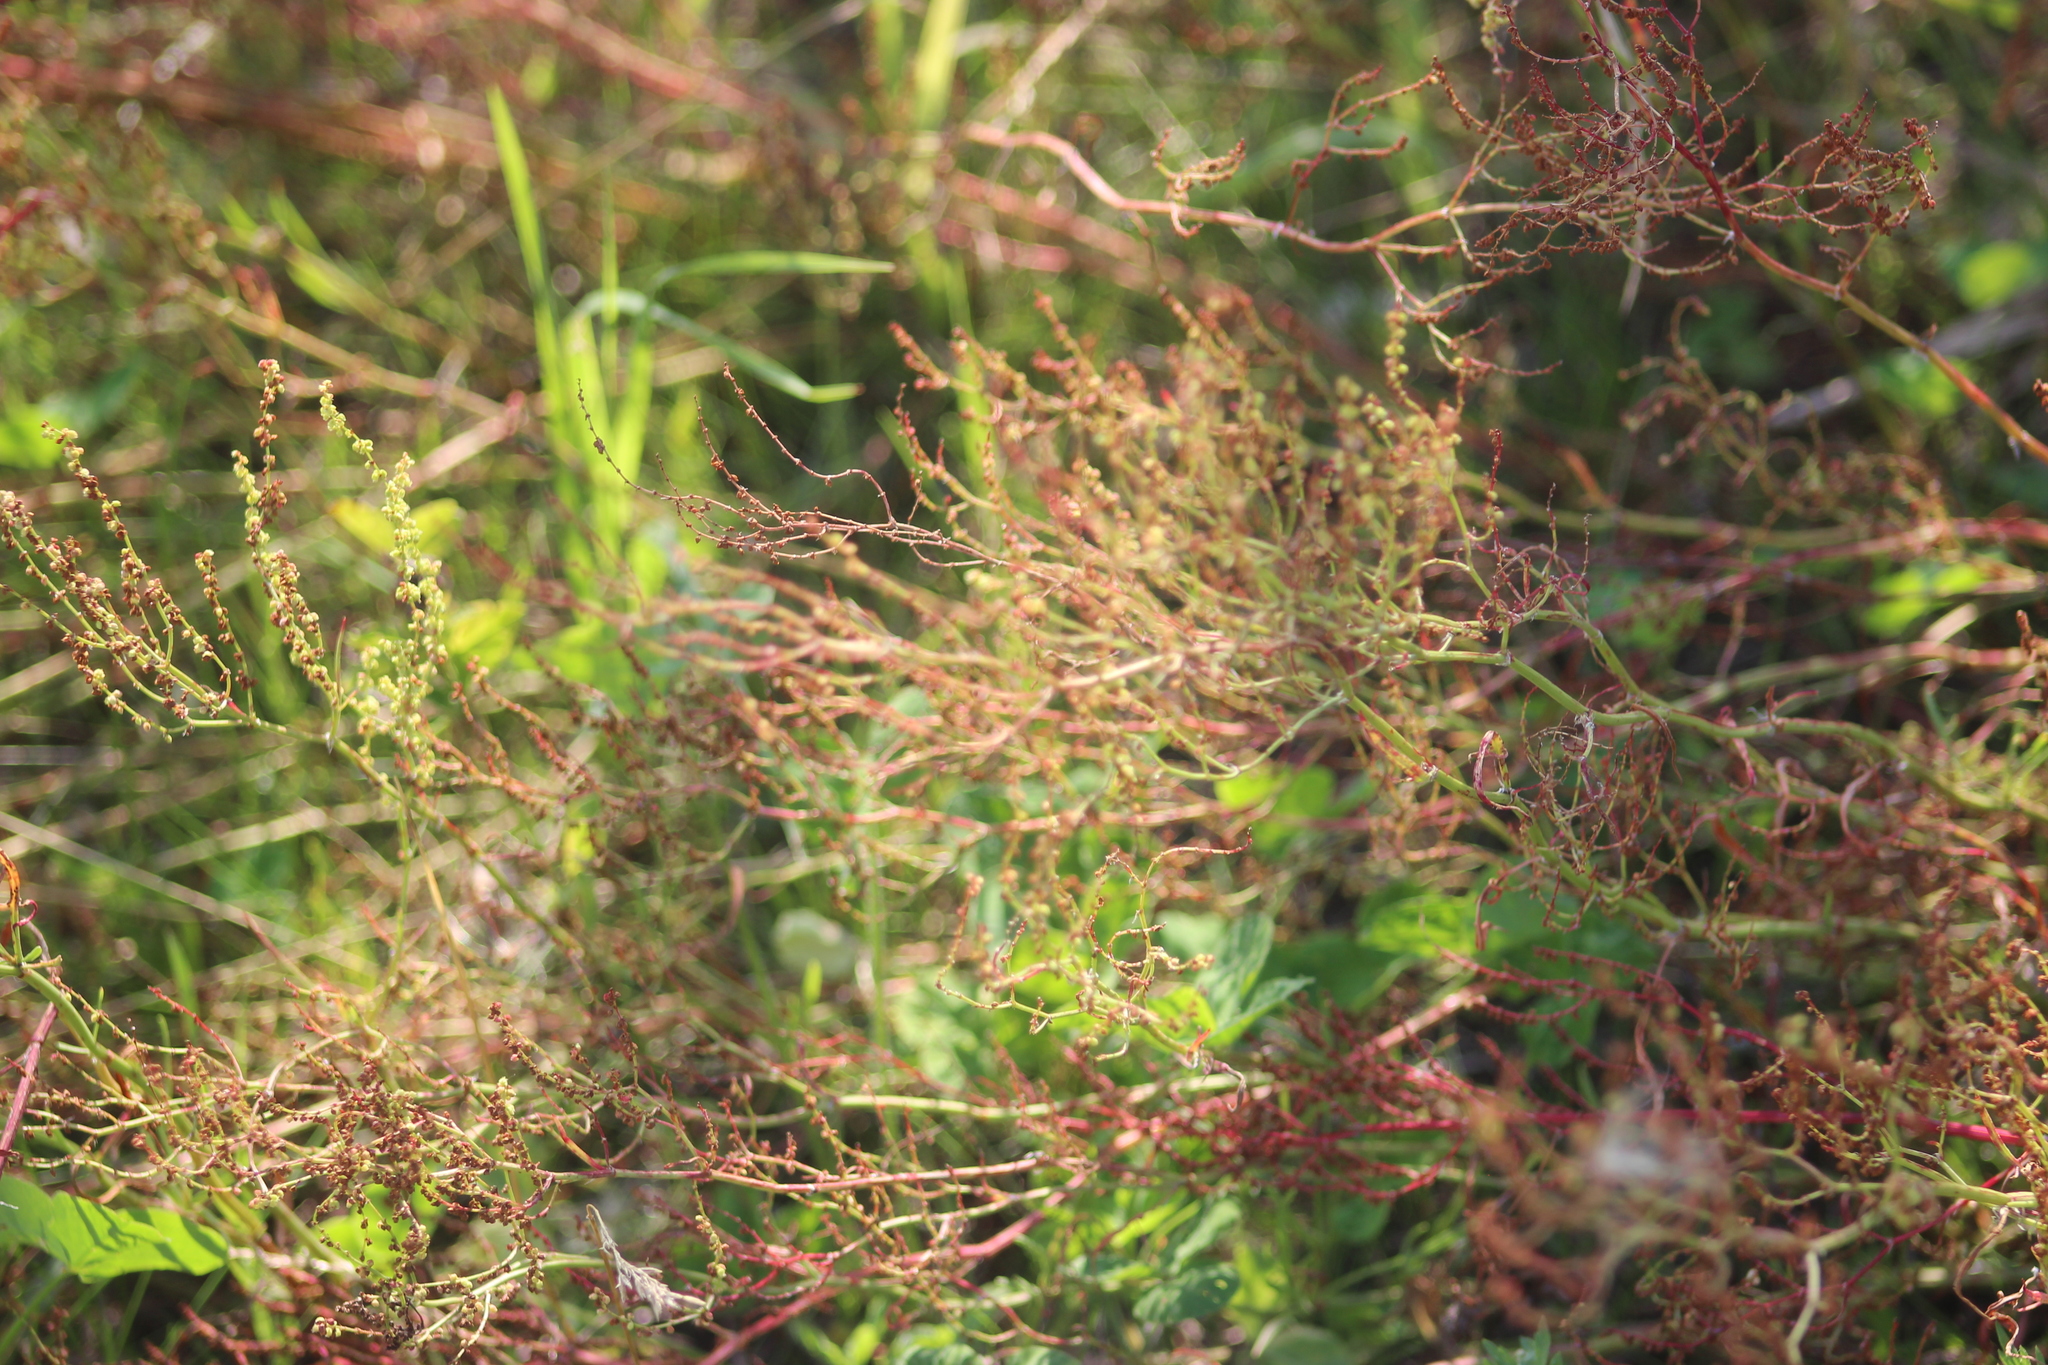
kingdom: Plantae
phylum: Tracheophyta
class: Magnoliopsida
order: Caryophyllales
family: Polygonaceae
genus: Rumex
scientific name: Rumex acetosella
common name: Common sheep sorrel
